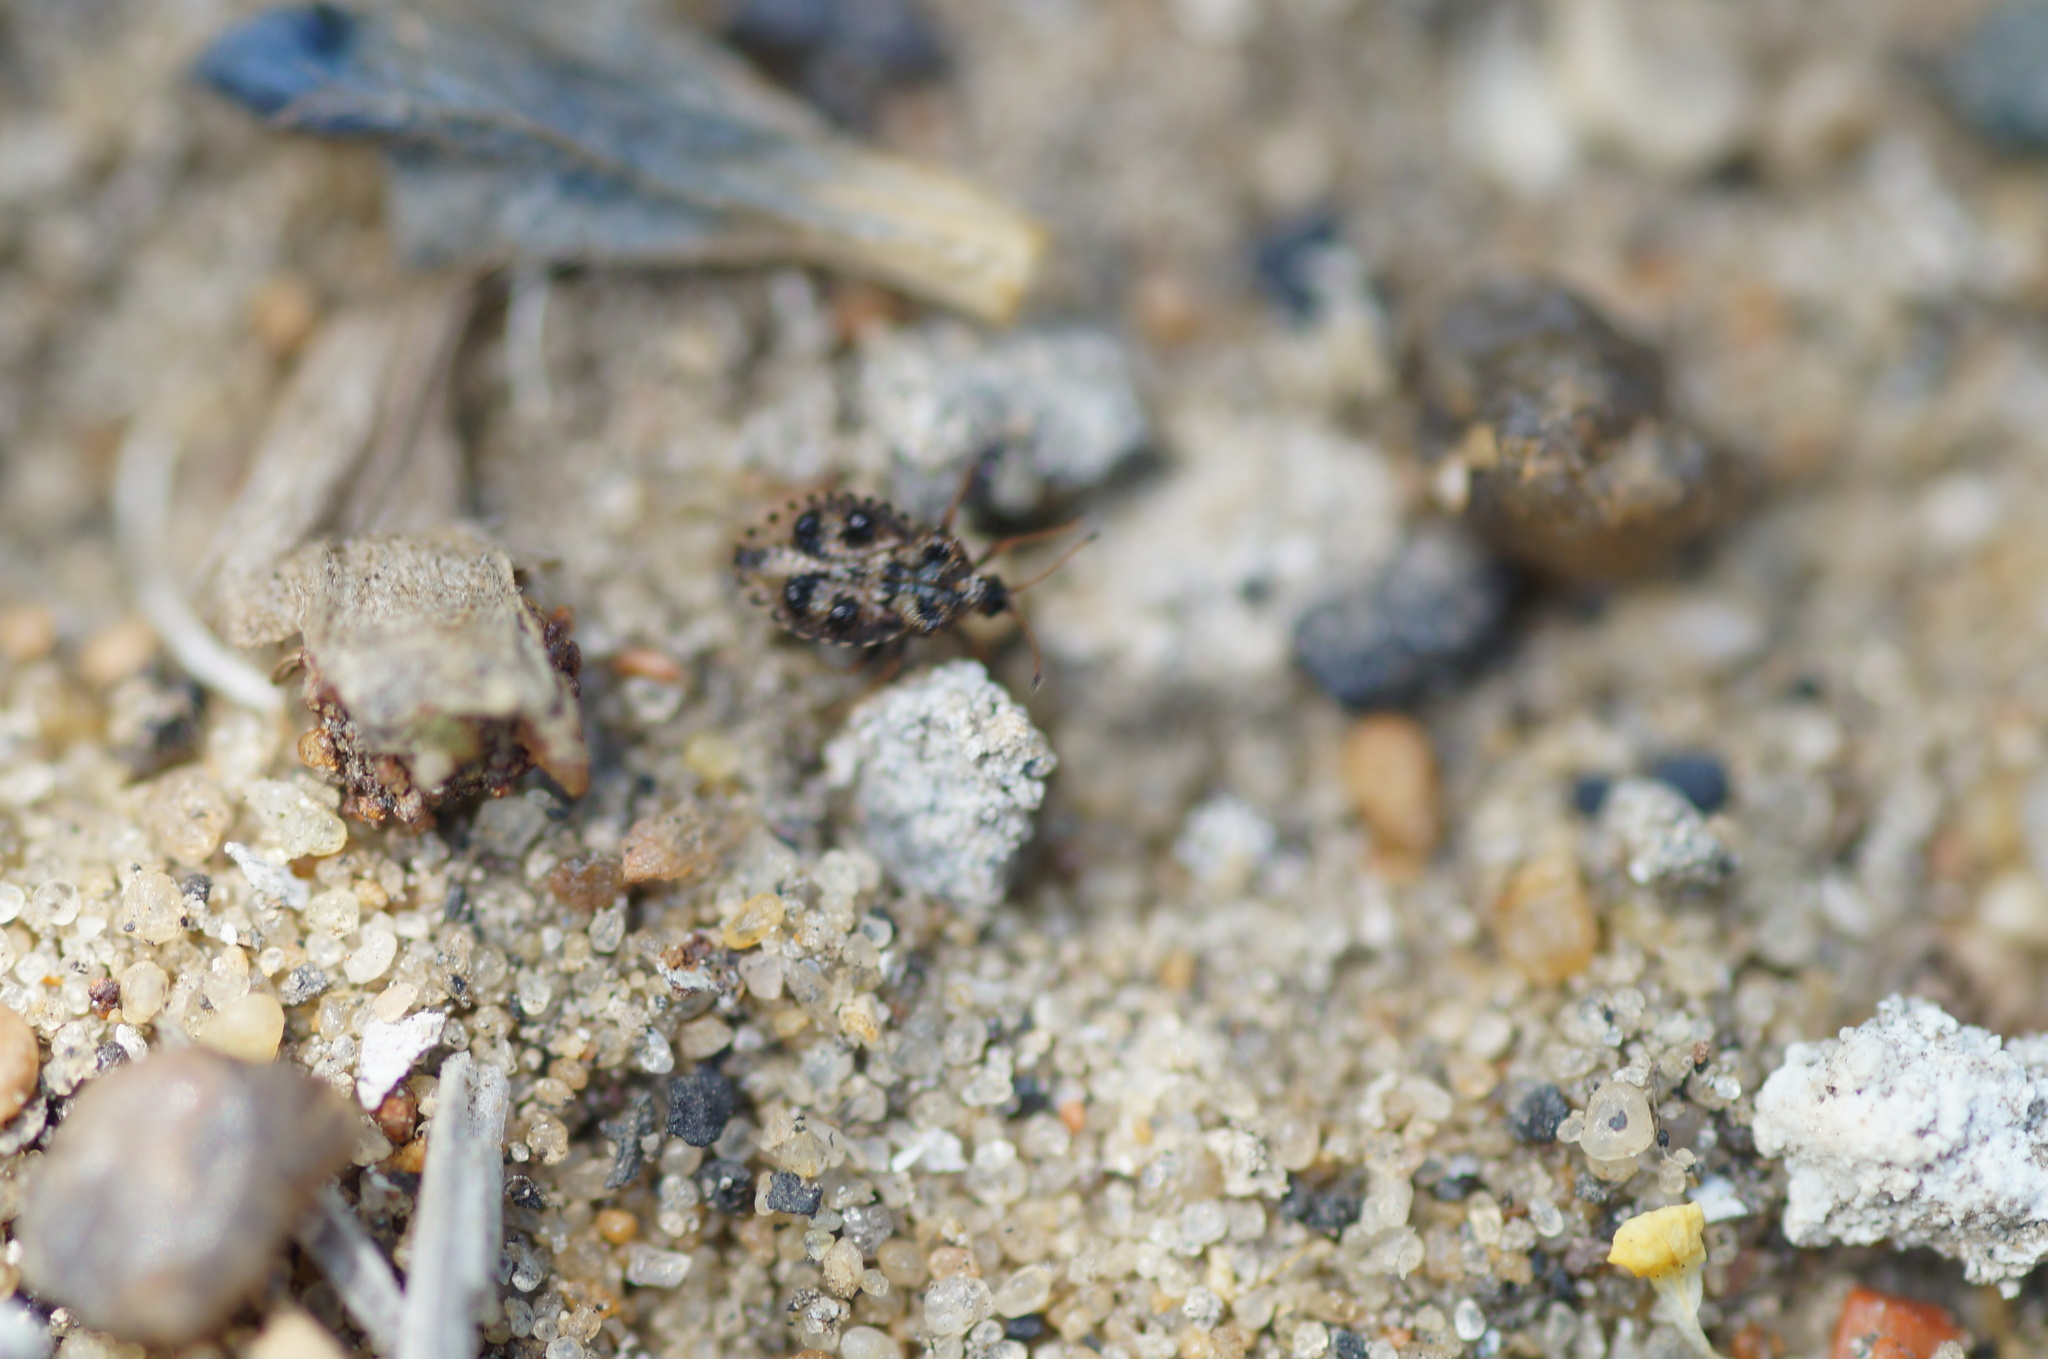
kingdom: Animalia
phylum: Arthropoda
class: Insecta
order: Hemiptera
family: Tingidae
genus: Dictyla
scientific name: Dictyla rotundata
